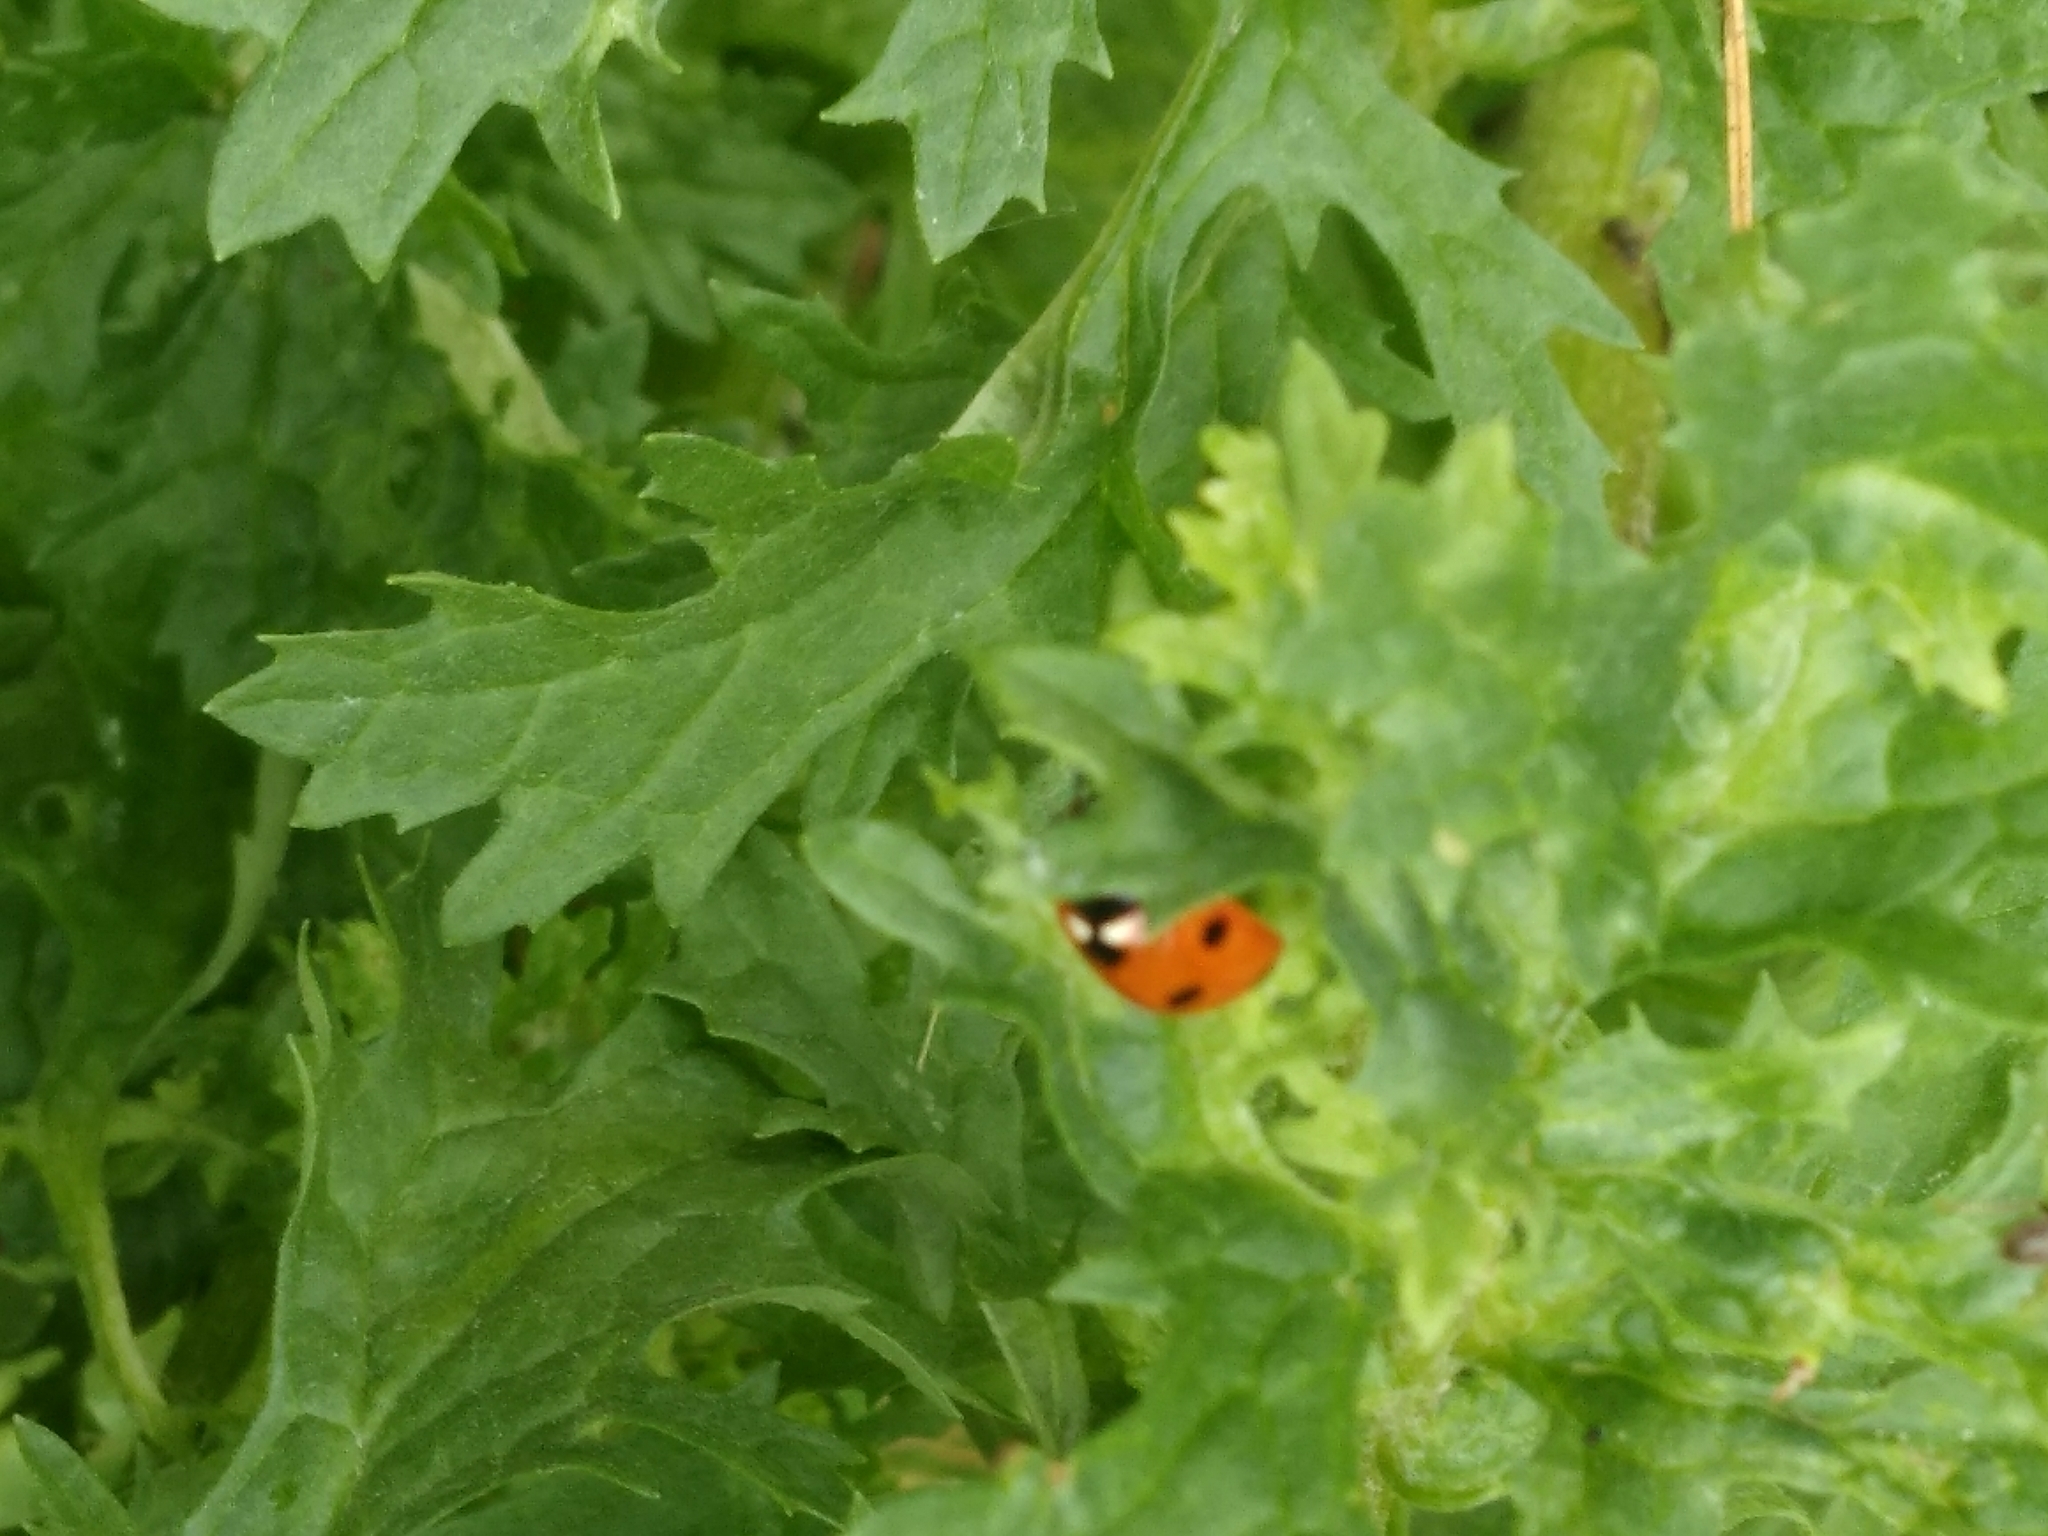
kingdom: Animalia
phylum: Arthropoda
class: Insecta
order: Coleoptera
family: Coccinellidae
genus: Coccinella
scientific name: Coccinella septempunctata
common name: Sevenspotted lady beetle
